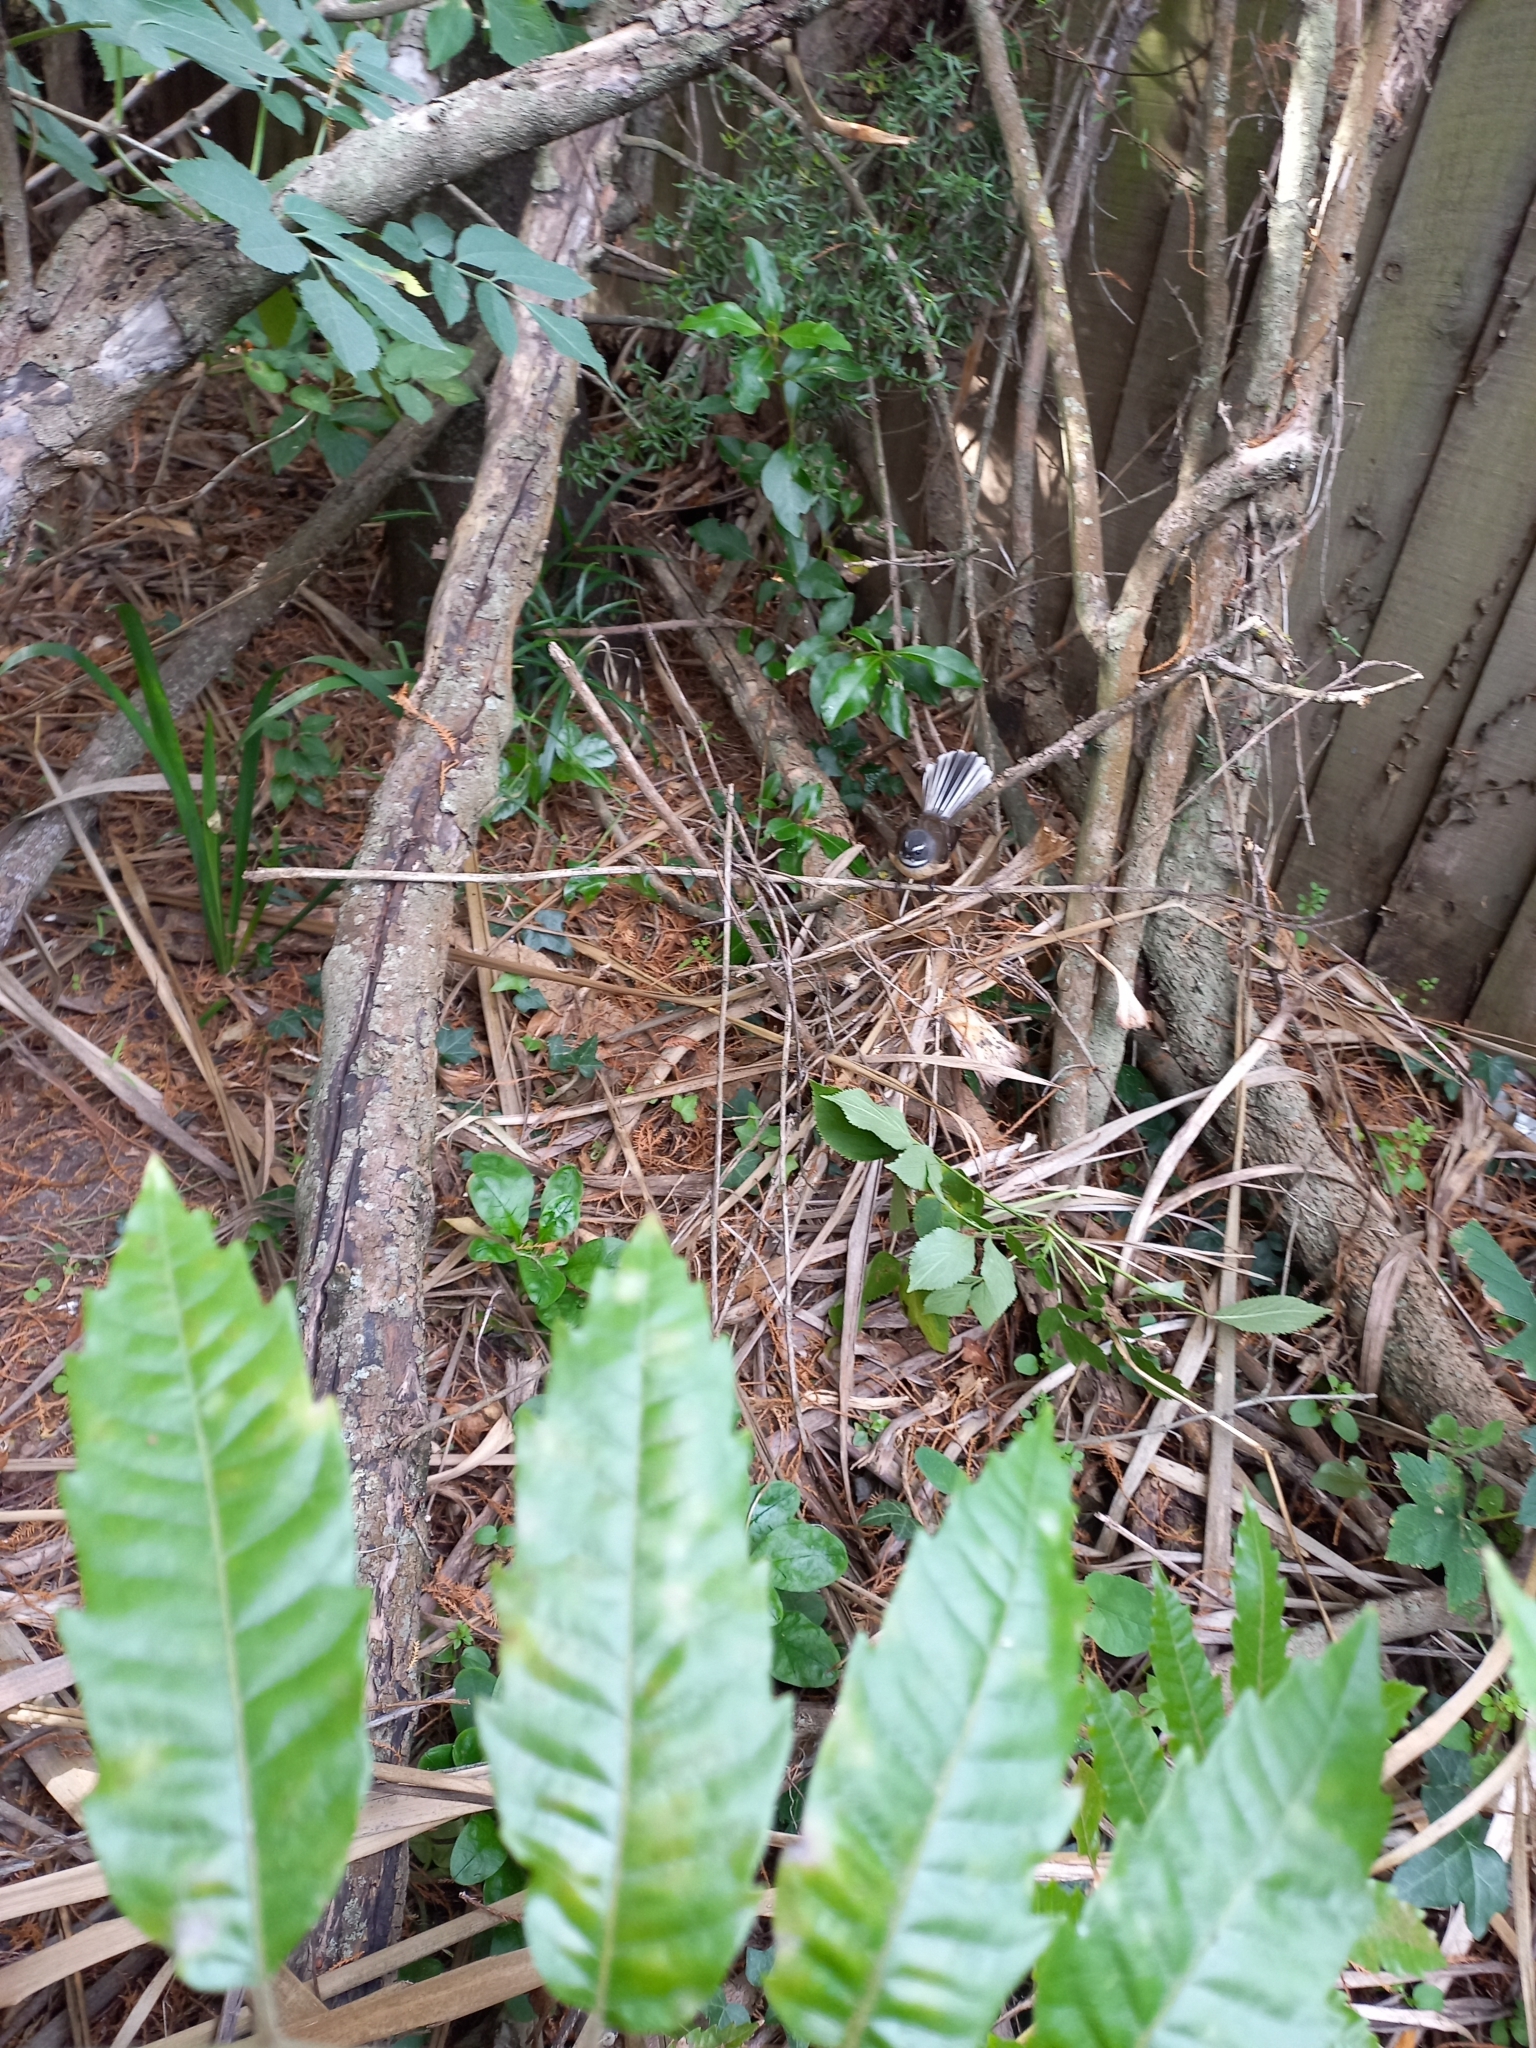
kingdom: Animalia
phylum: Chordata
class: Aves
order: Passeriformes
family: Rhipiduridae
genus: Rhipidura
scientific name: Rhipidura fuliginosa
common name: New zealand fantail
